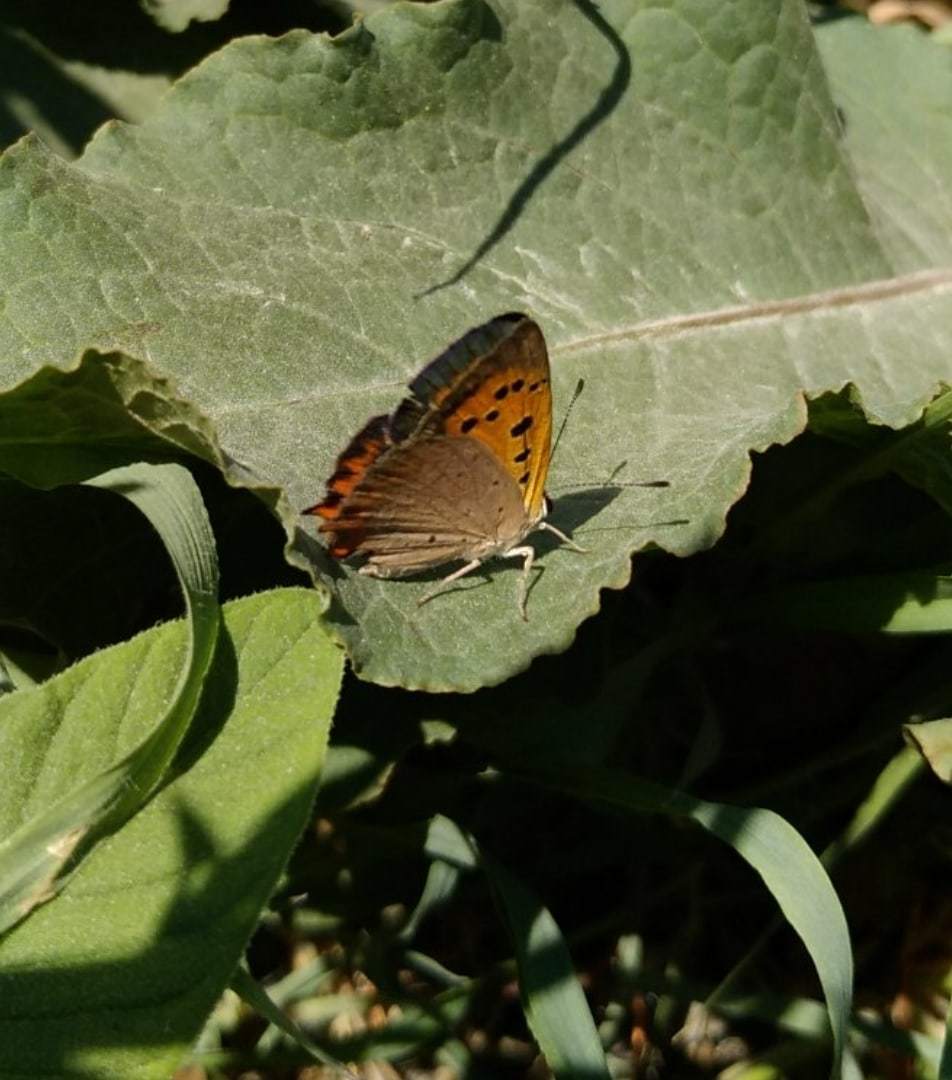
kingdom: Animalia
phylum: Arthropoda
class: Insecta
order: Lepidoptera
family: Lycaenidae
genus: Lycaena
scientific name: Lycaena phlaeas
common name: Small copper
